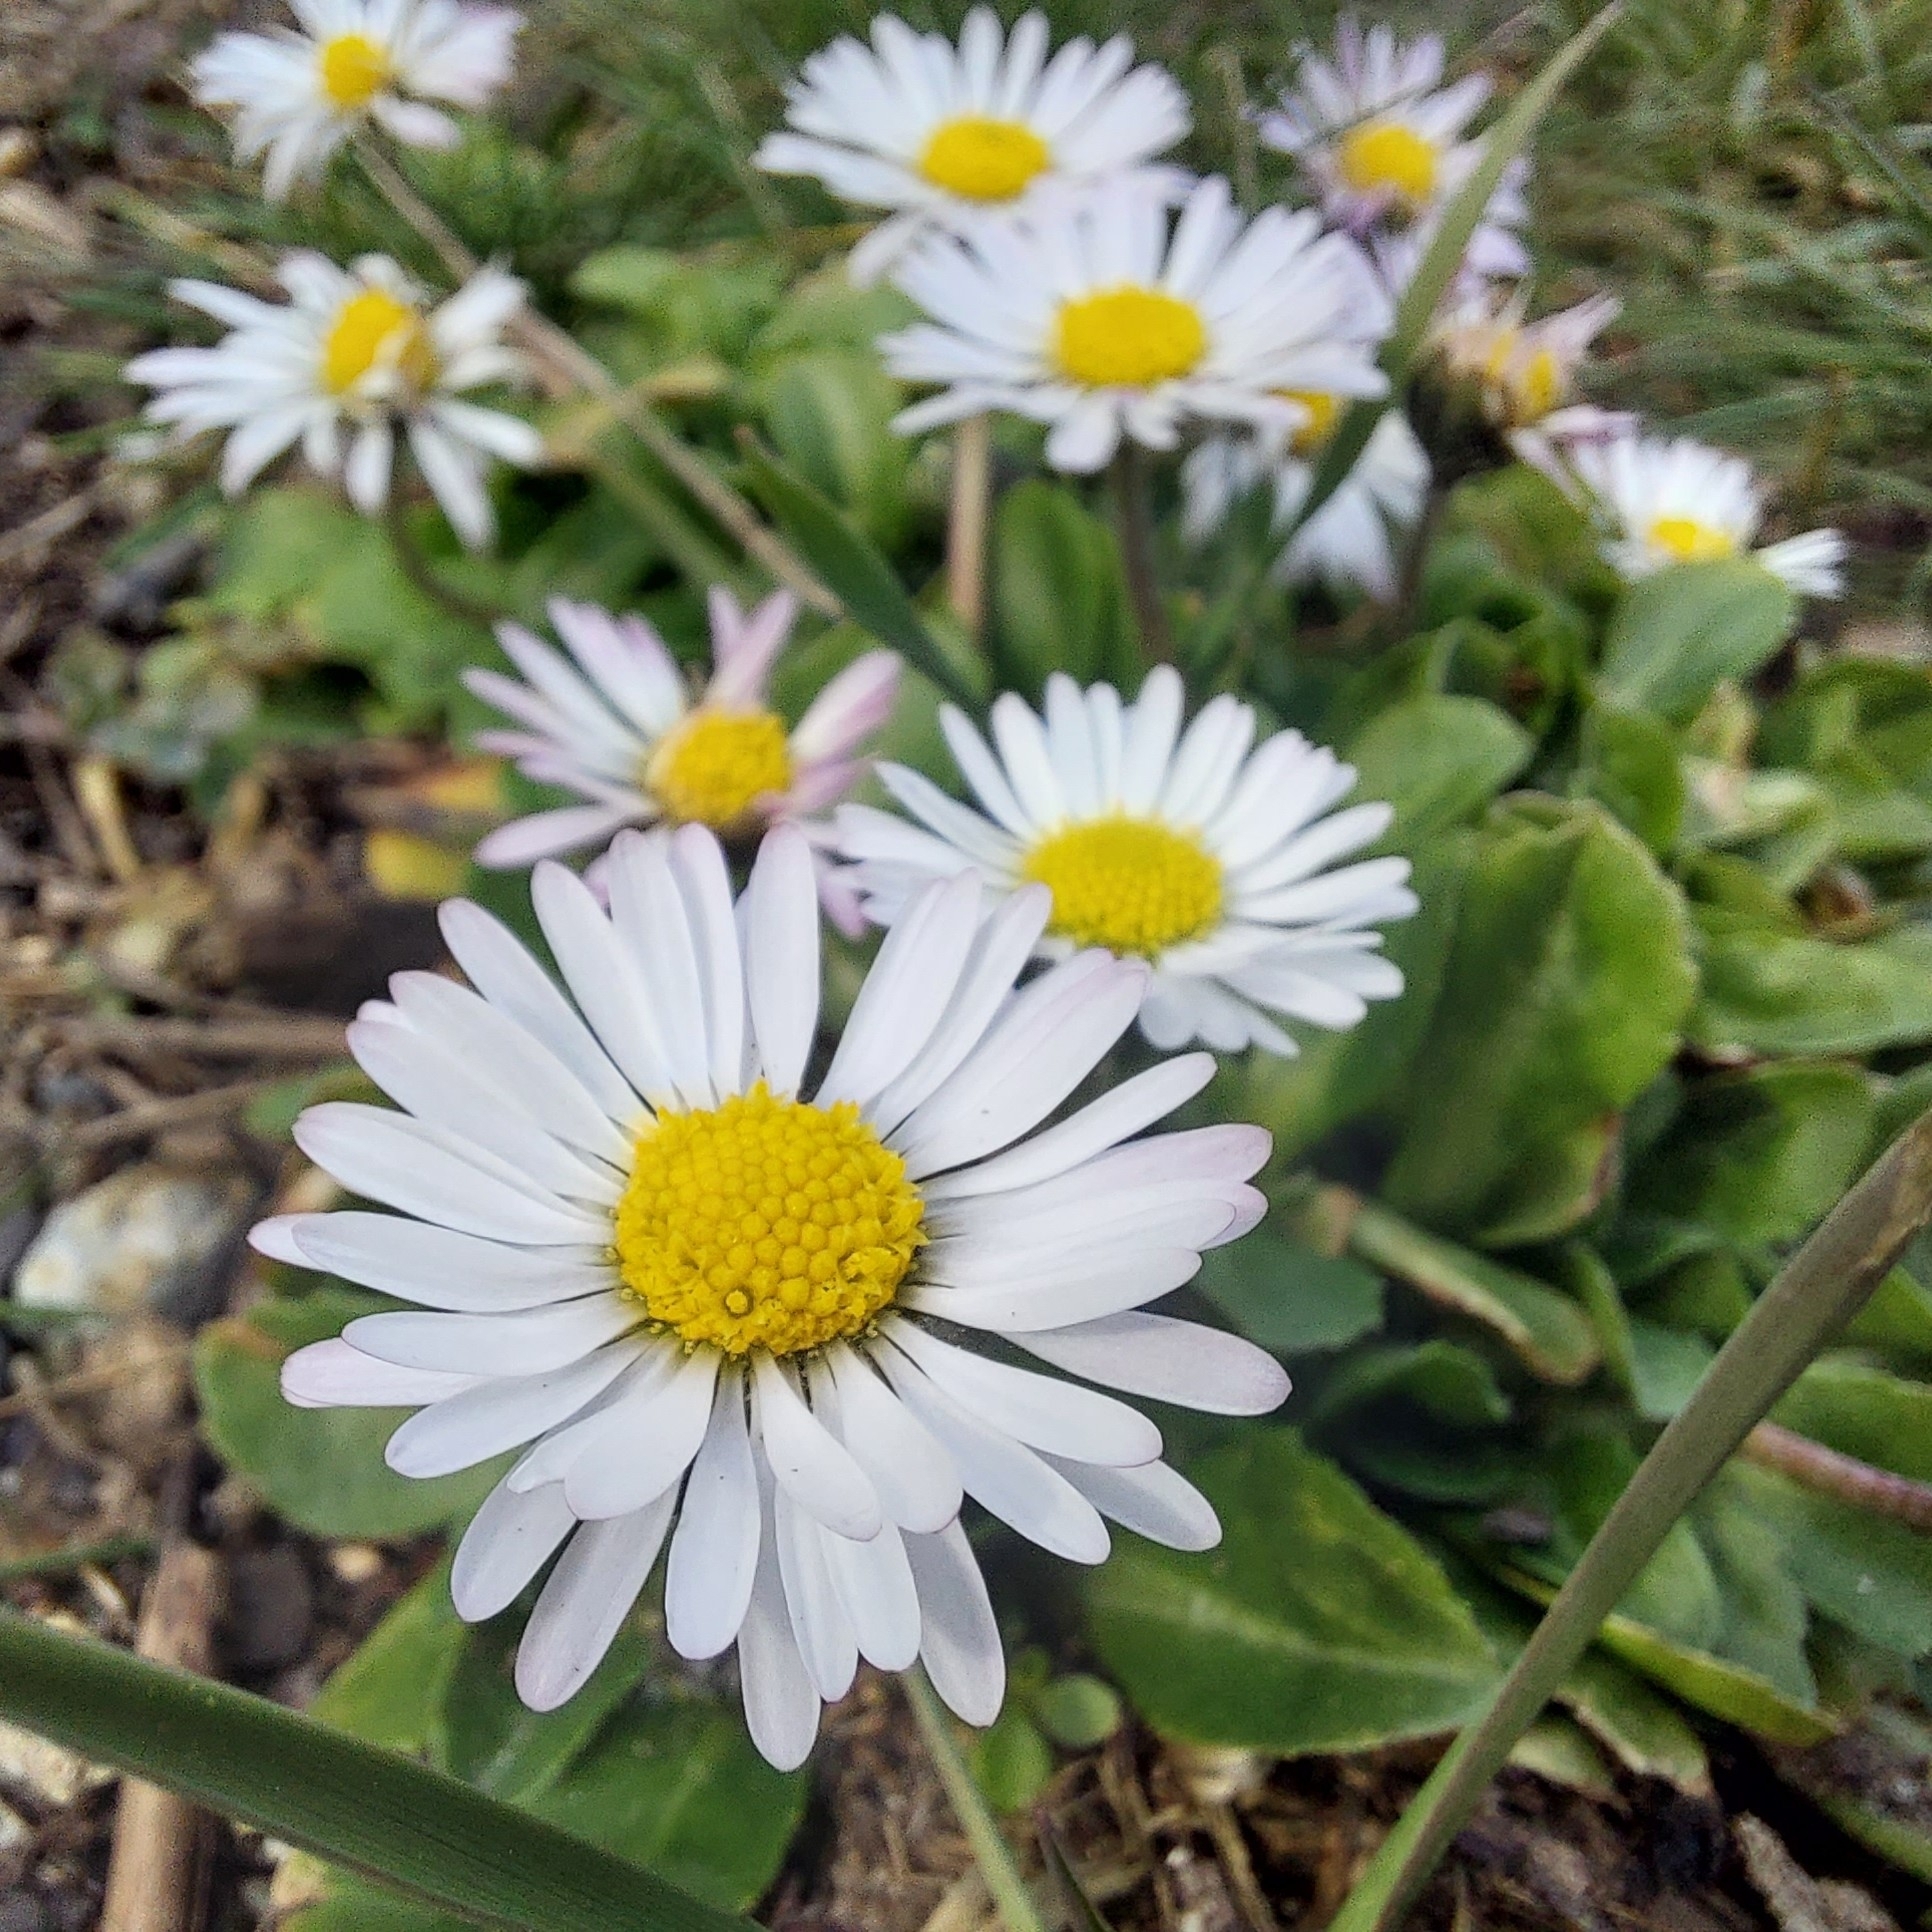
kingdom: Plantae
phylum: Tracheophyta
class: Magnoliopsida
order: Asterales
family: Asteraceae
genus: Bellis
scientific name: Bellis perennis
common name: Lawndaisy
